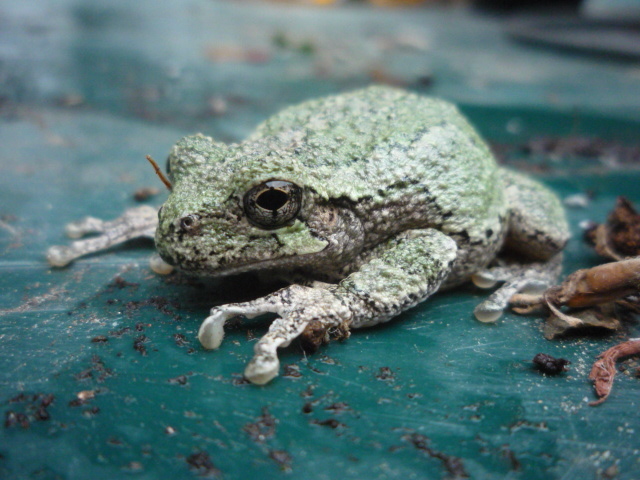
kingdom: Animalia
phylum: Chordata
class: Amphibia
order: Anura
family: Hylidae
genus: Dryophytes
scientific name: Dryophytes versicolor
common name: Gray treefrog
